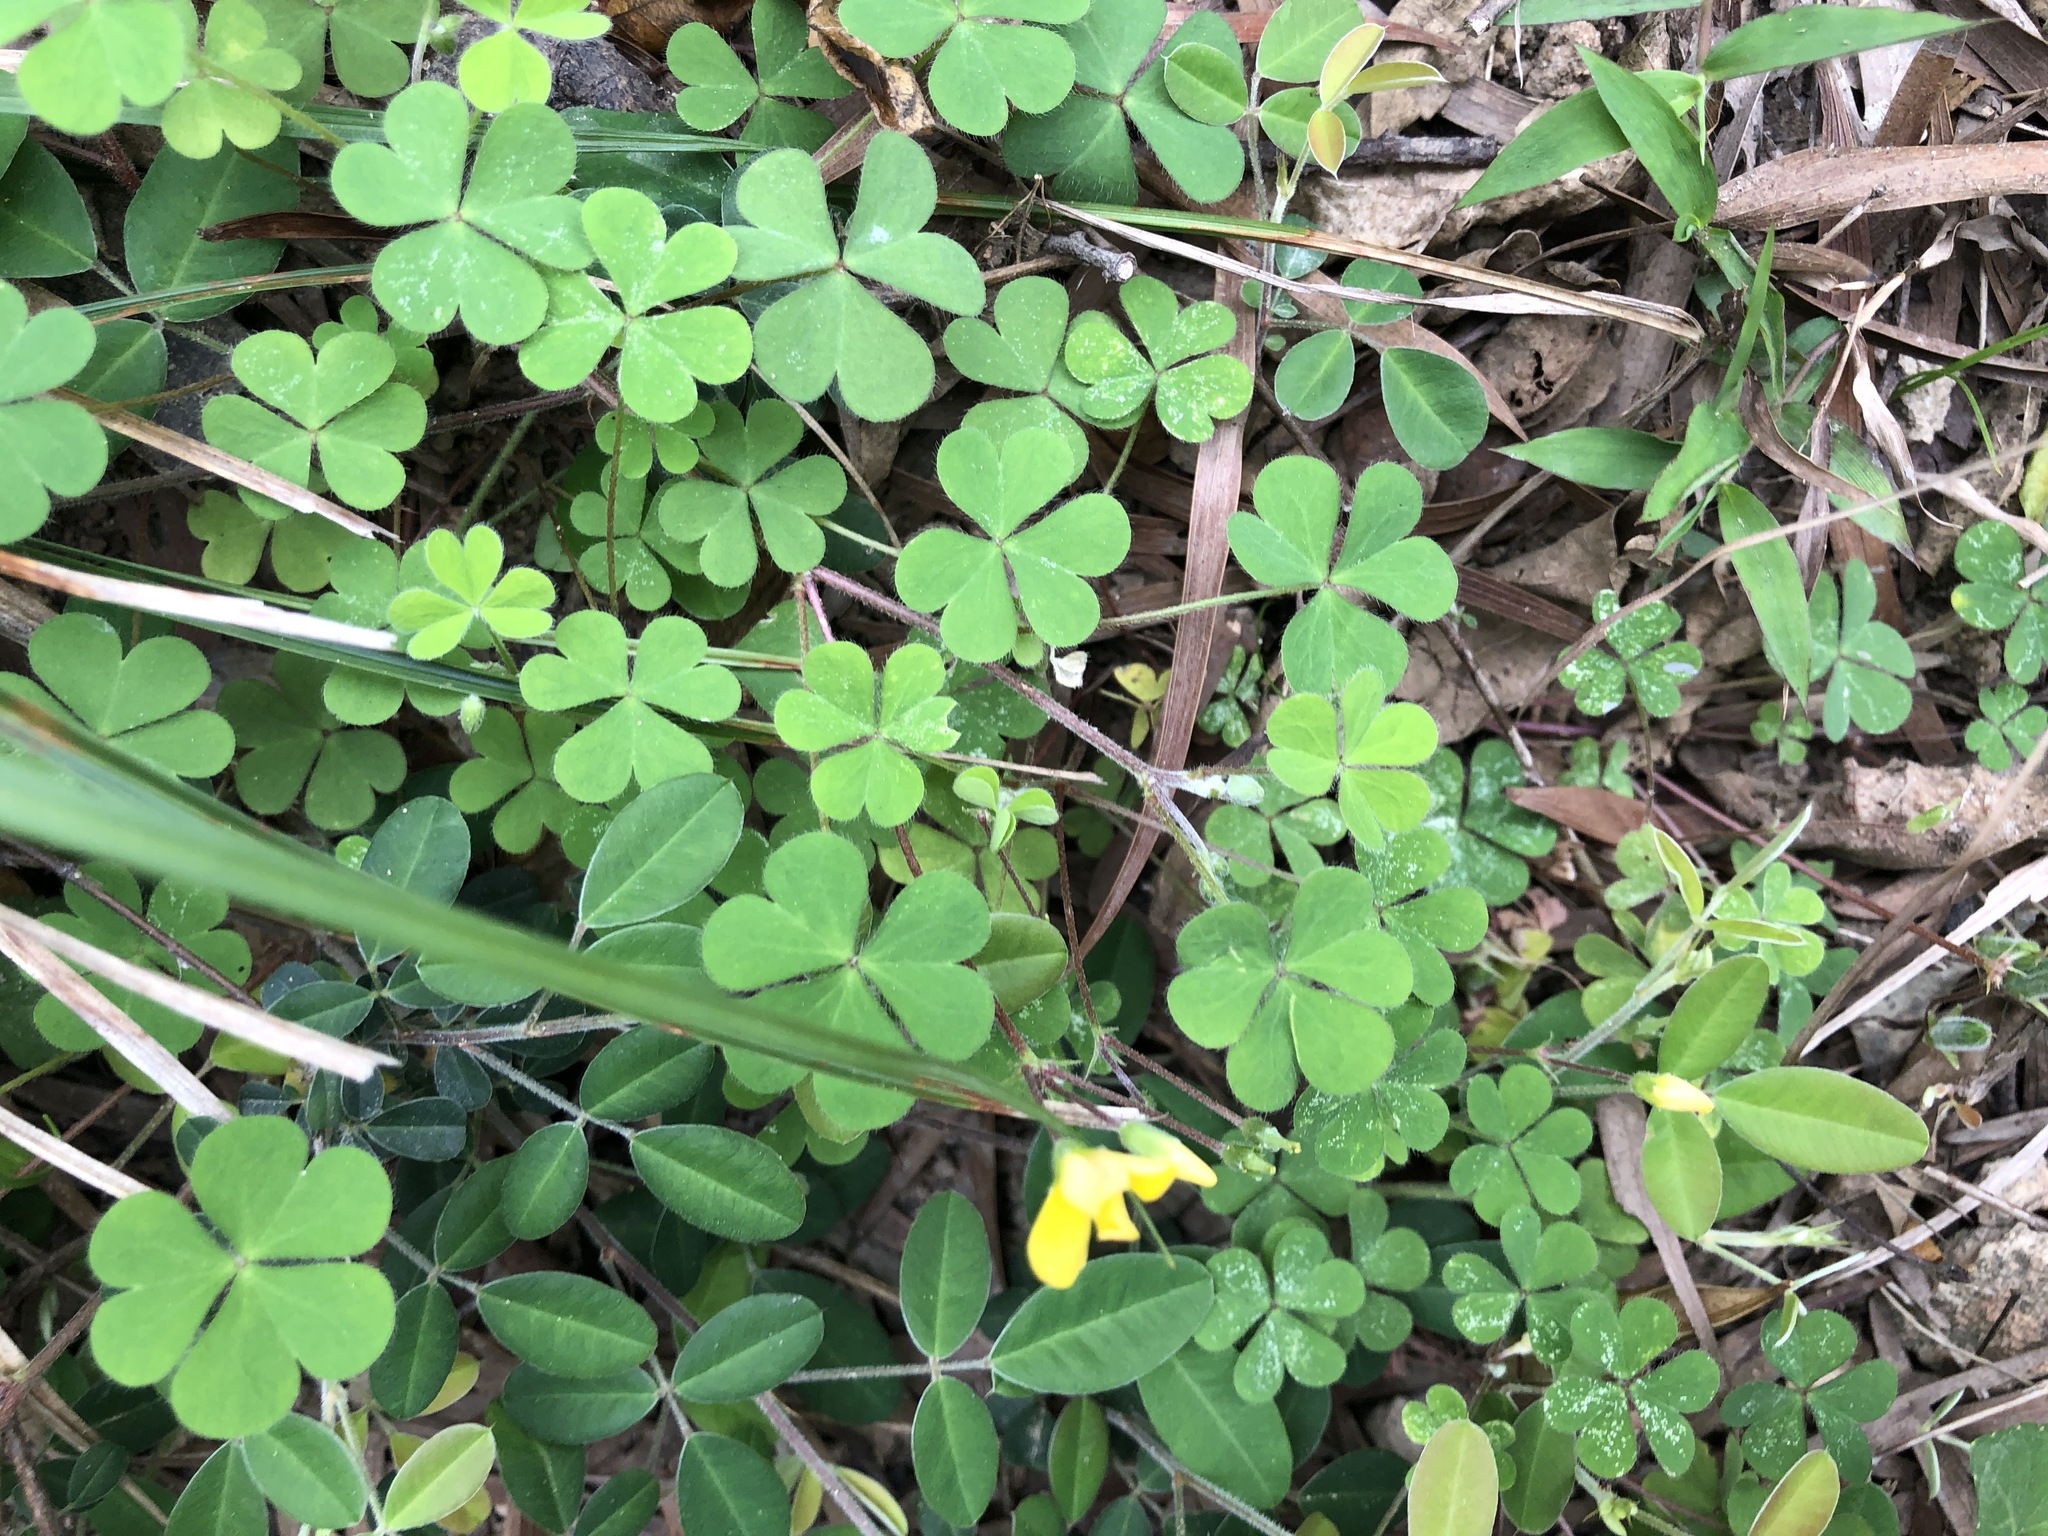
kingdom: Plantae
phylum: Tracheophyta
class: Magnoliopsida
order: Oxalidales
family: Oxalidaceae
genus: Oxalis
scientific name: Oxalis corniculata
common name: Procumbent yellow-sorrel
